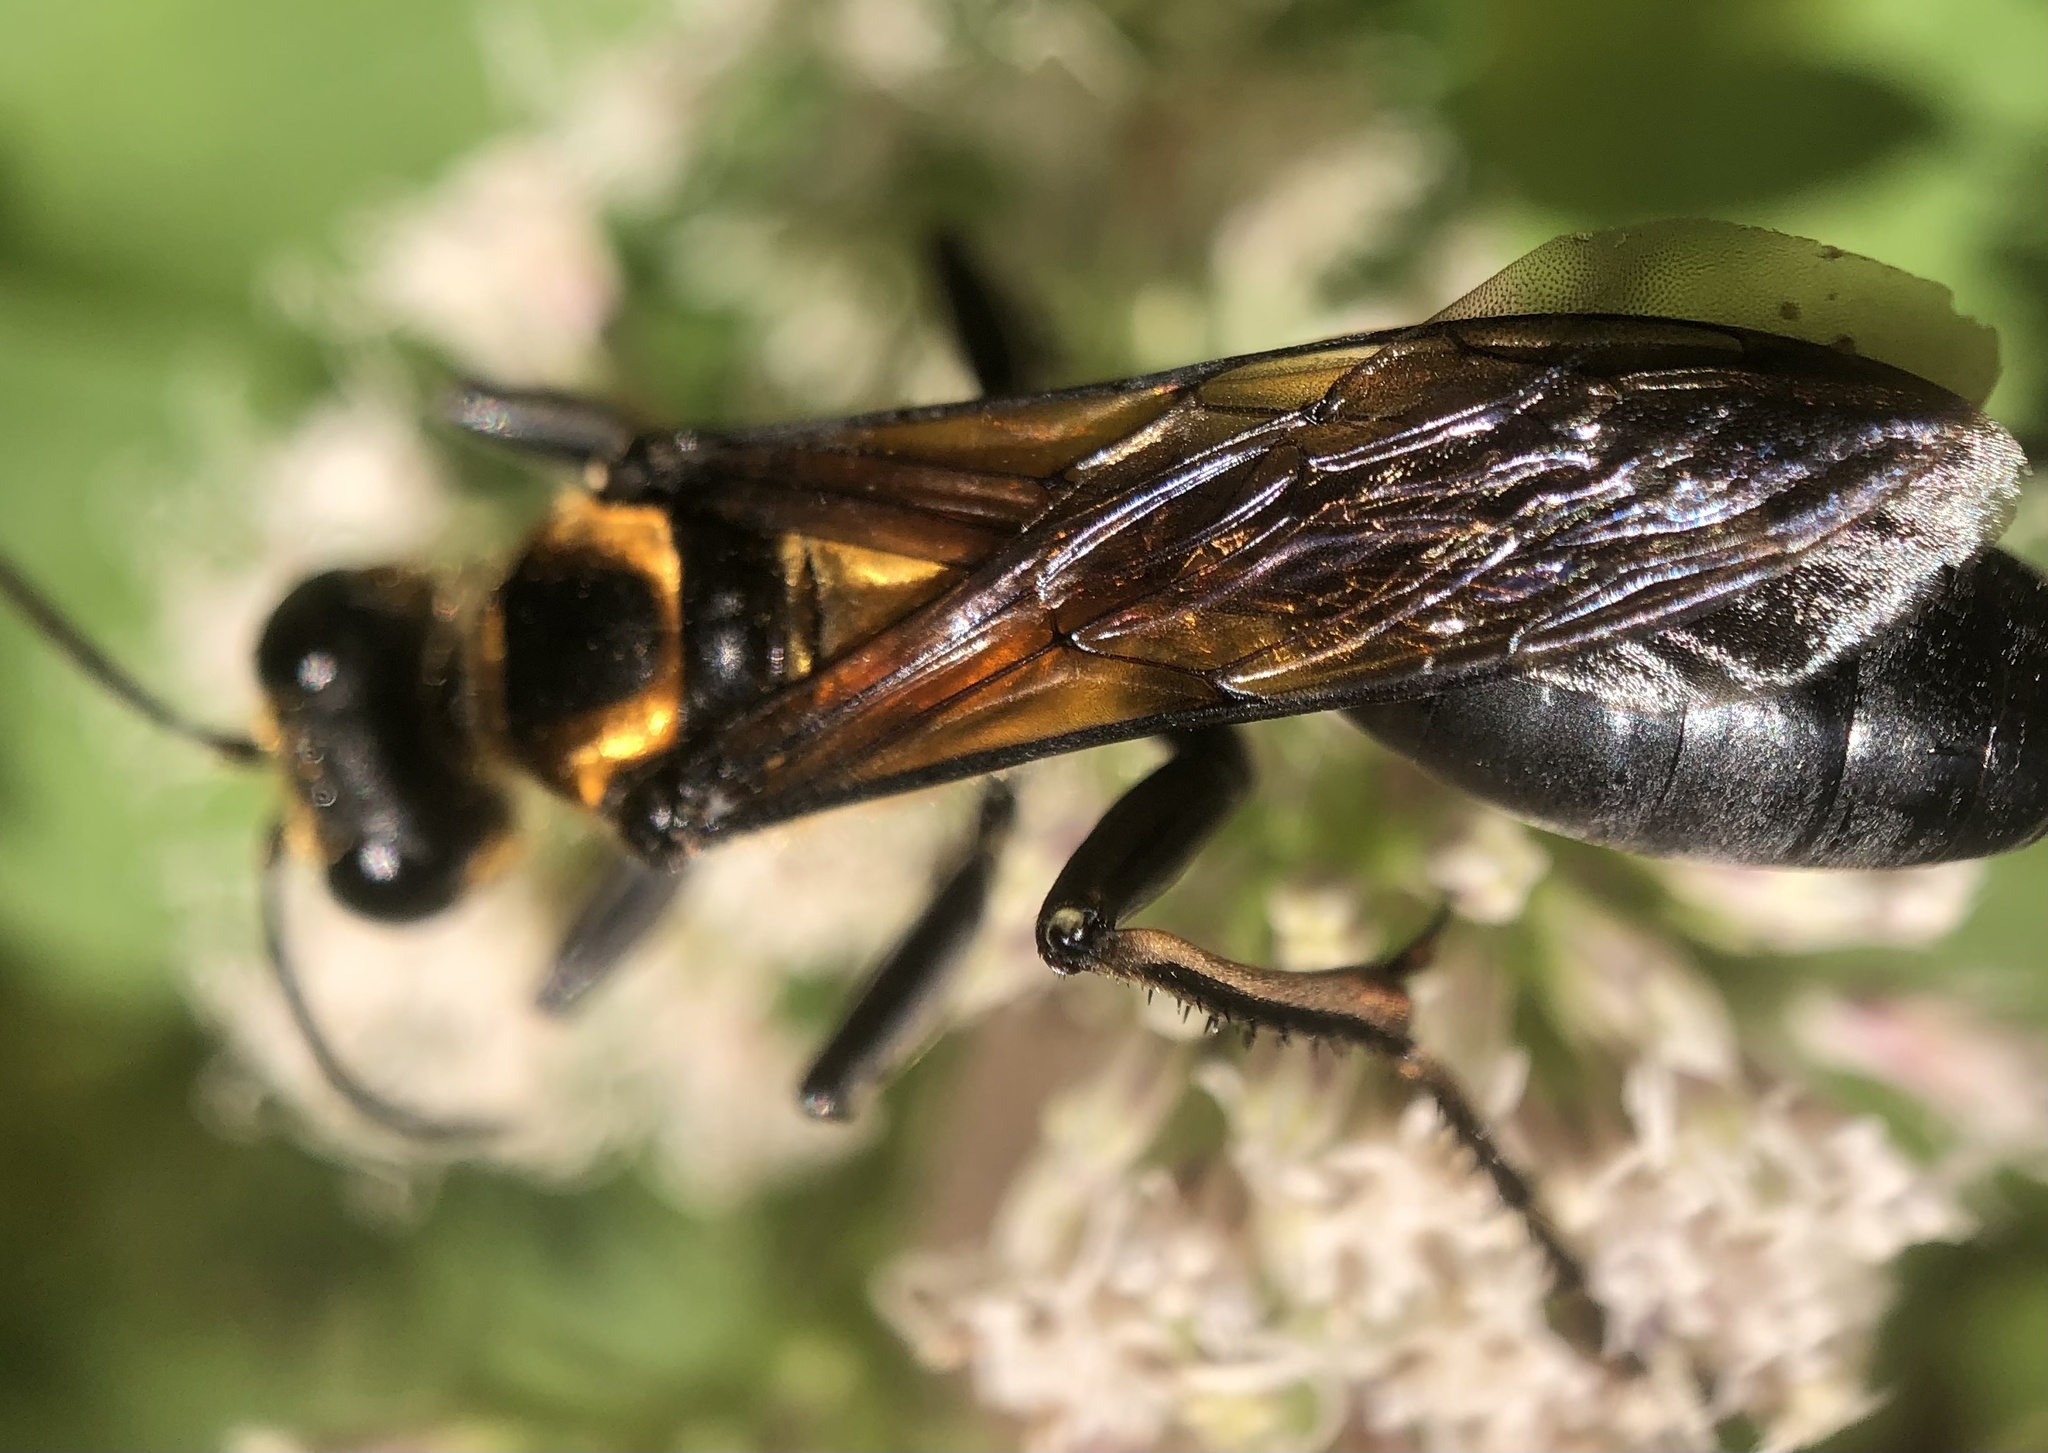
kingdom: Animalia
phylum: Arthropoda
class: Insecta
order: Hymenoptera
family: Sphecidae
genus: Sphex
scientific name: Sphex habenus
